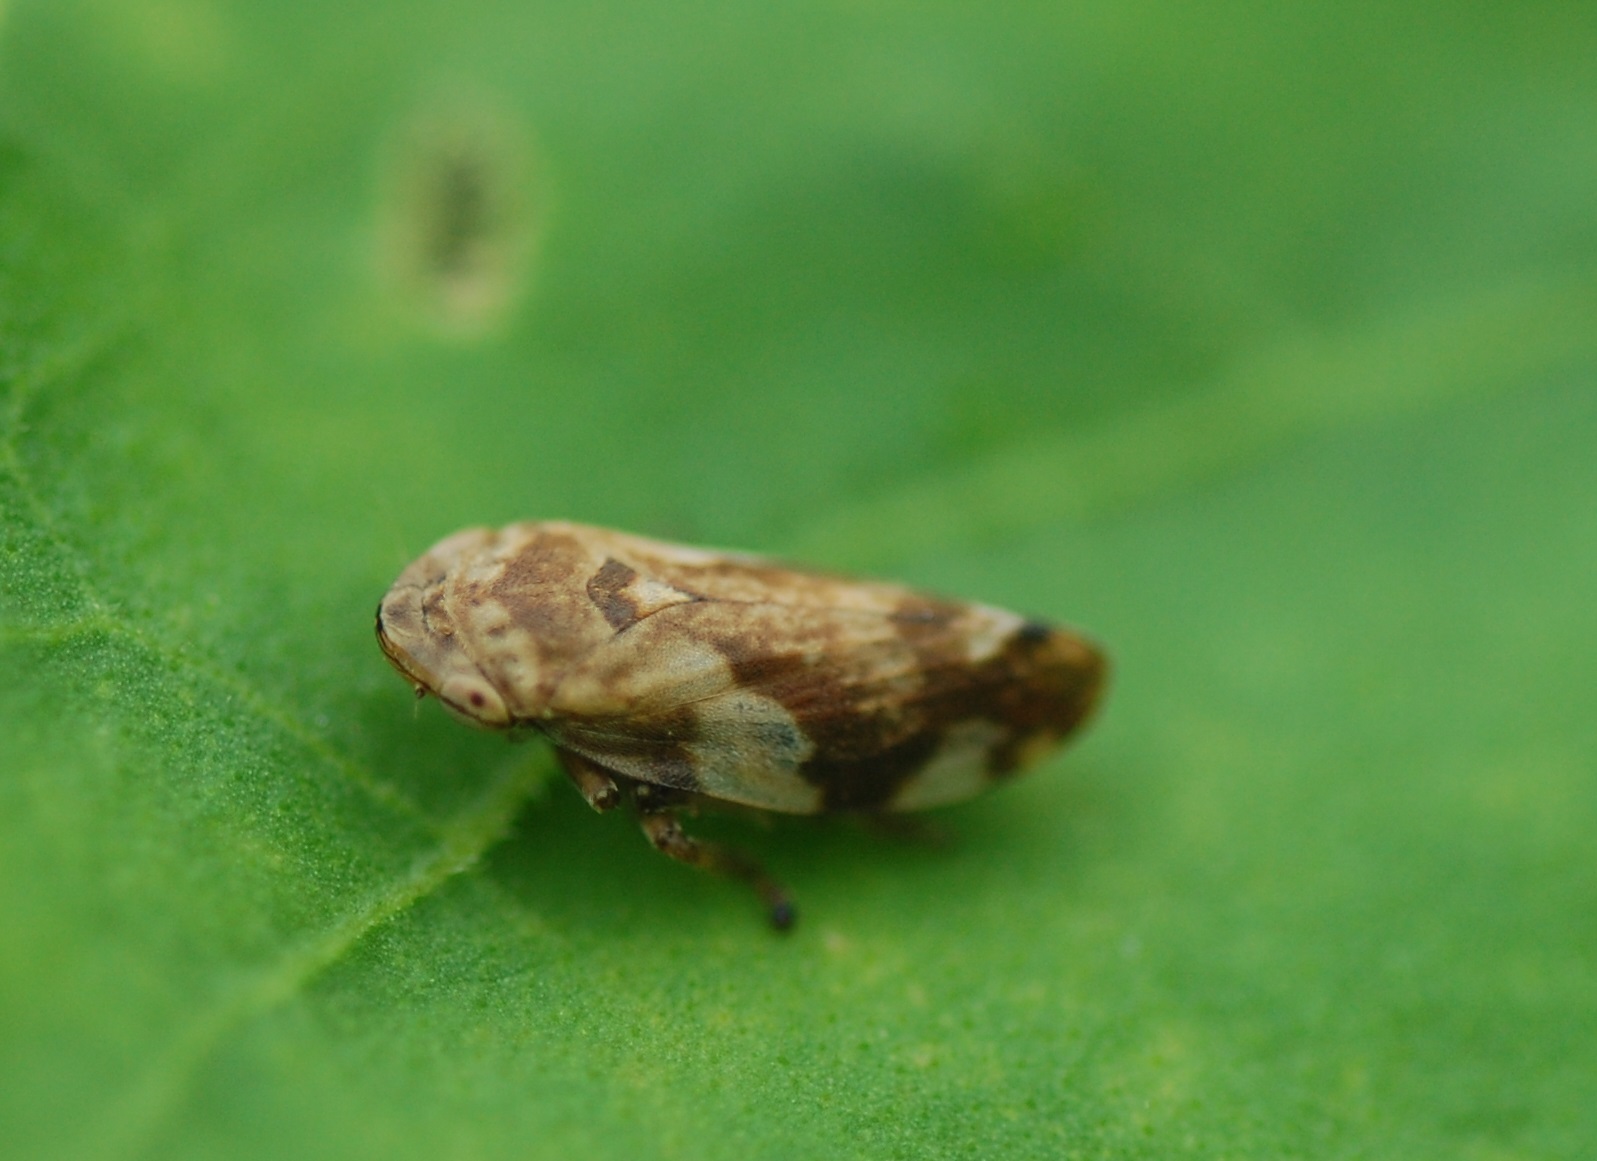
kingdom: Animalia
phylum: Arthropoda
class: Insecta
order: Hemiptera
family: Aphrophoridae
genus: Philaenus
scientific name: Philaenus spumarius
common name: Meadow spittlebug
